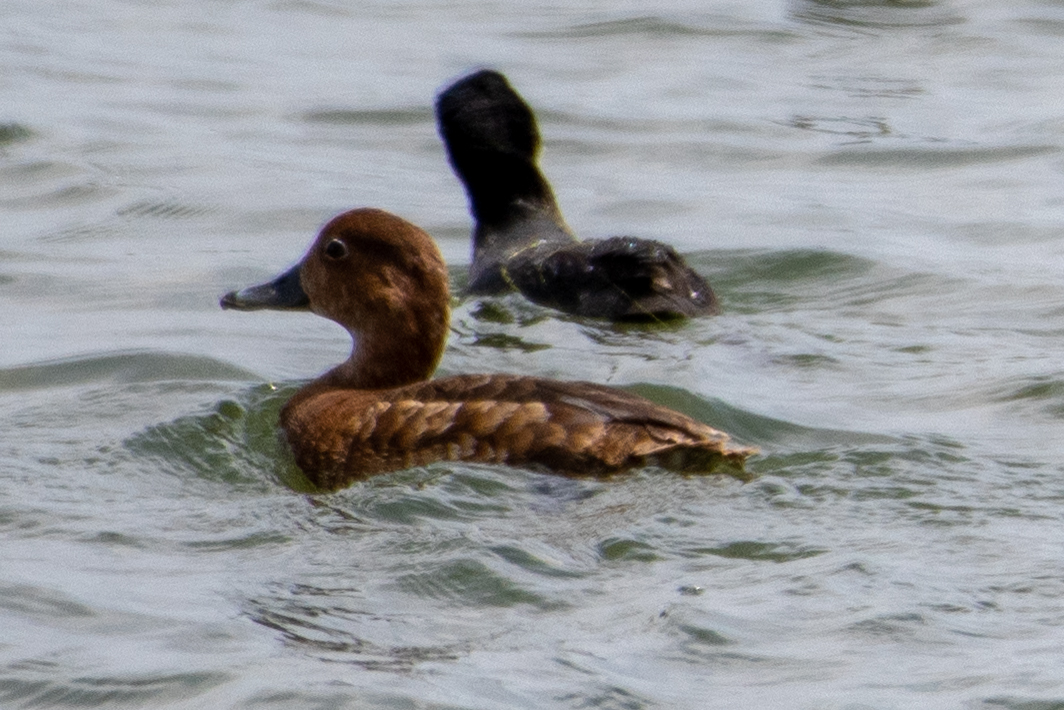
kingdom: Animalia
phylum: Chordata
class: Aves
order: Anseriformes
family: Anatidae
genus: Aythya
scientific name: Aythya americana
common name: Redhead
